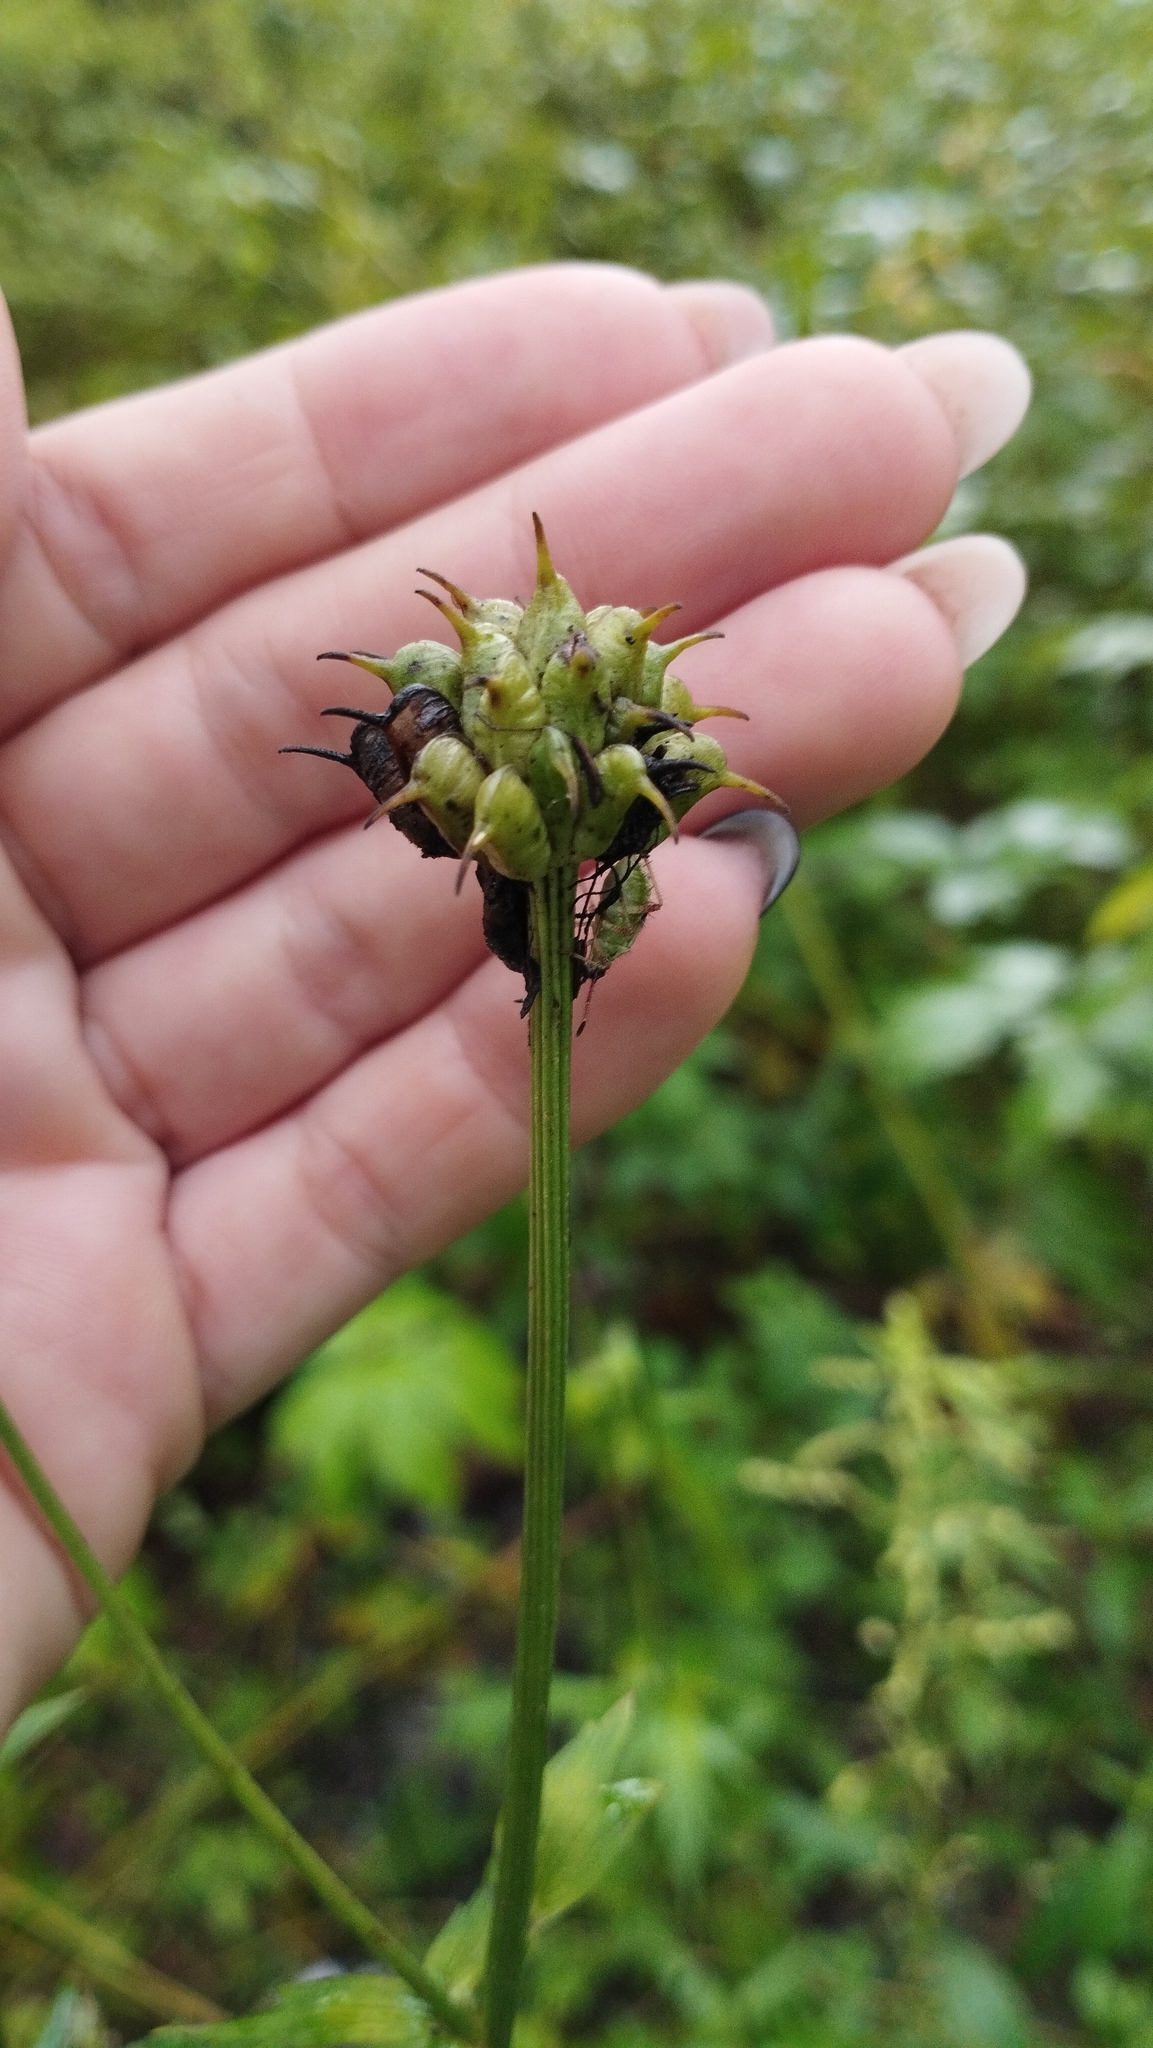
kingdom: Plantae
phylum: Tracheophyta
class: Magnoliopsida
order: Ranunculales
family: Ranunculaceae
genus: Trollius
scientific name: Trollius chinensis
